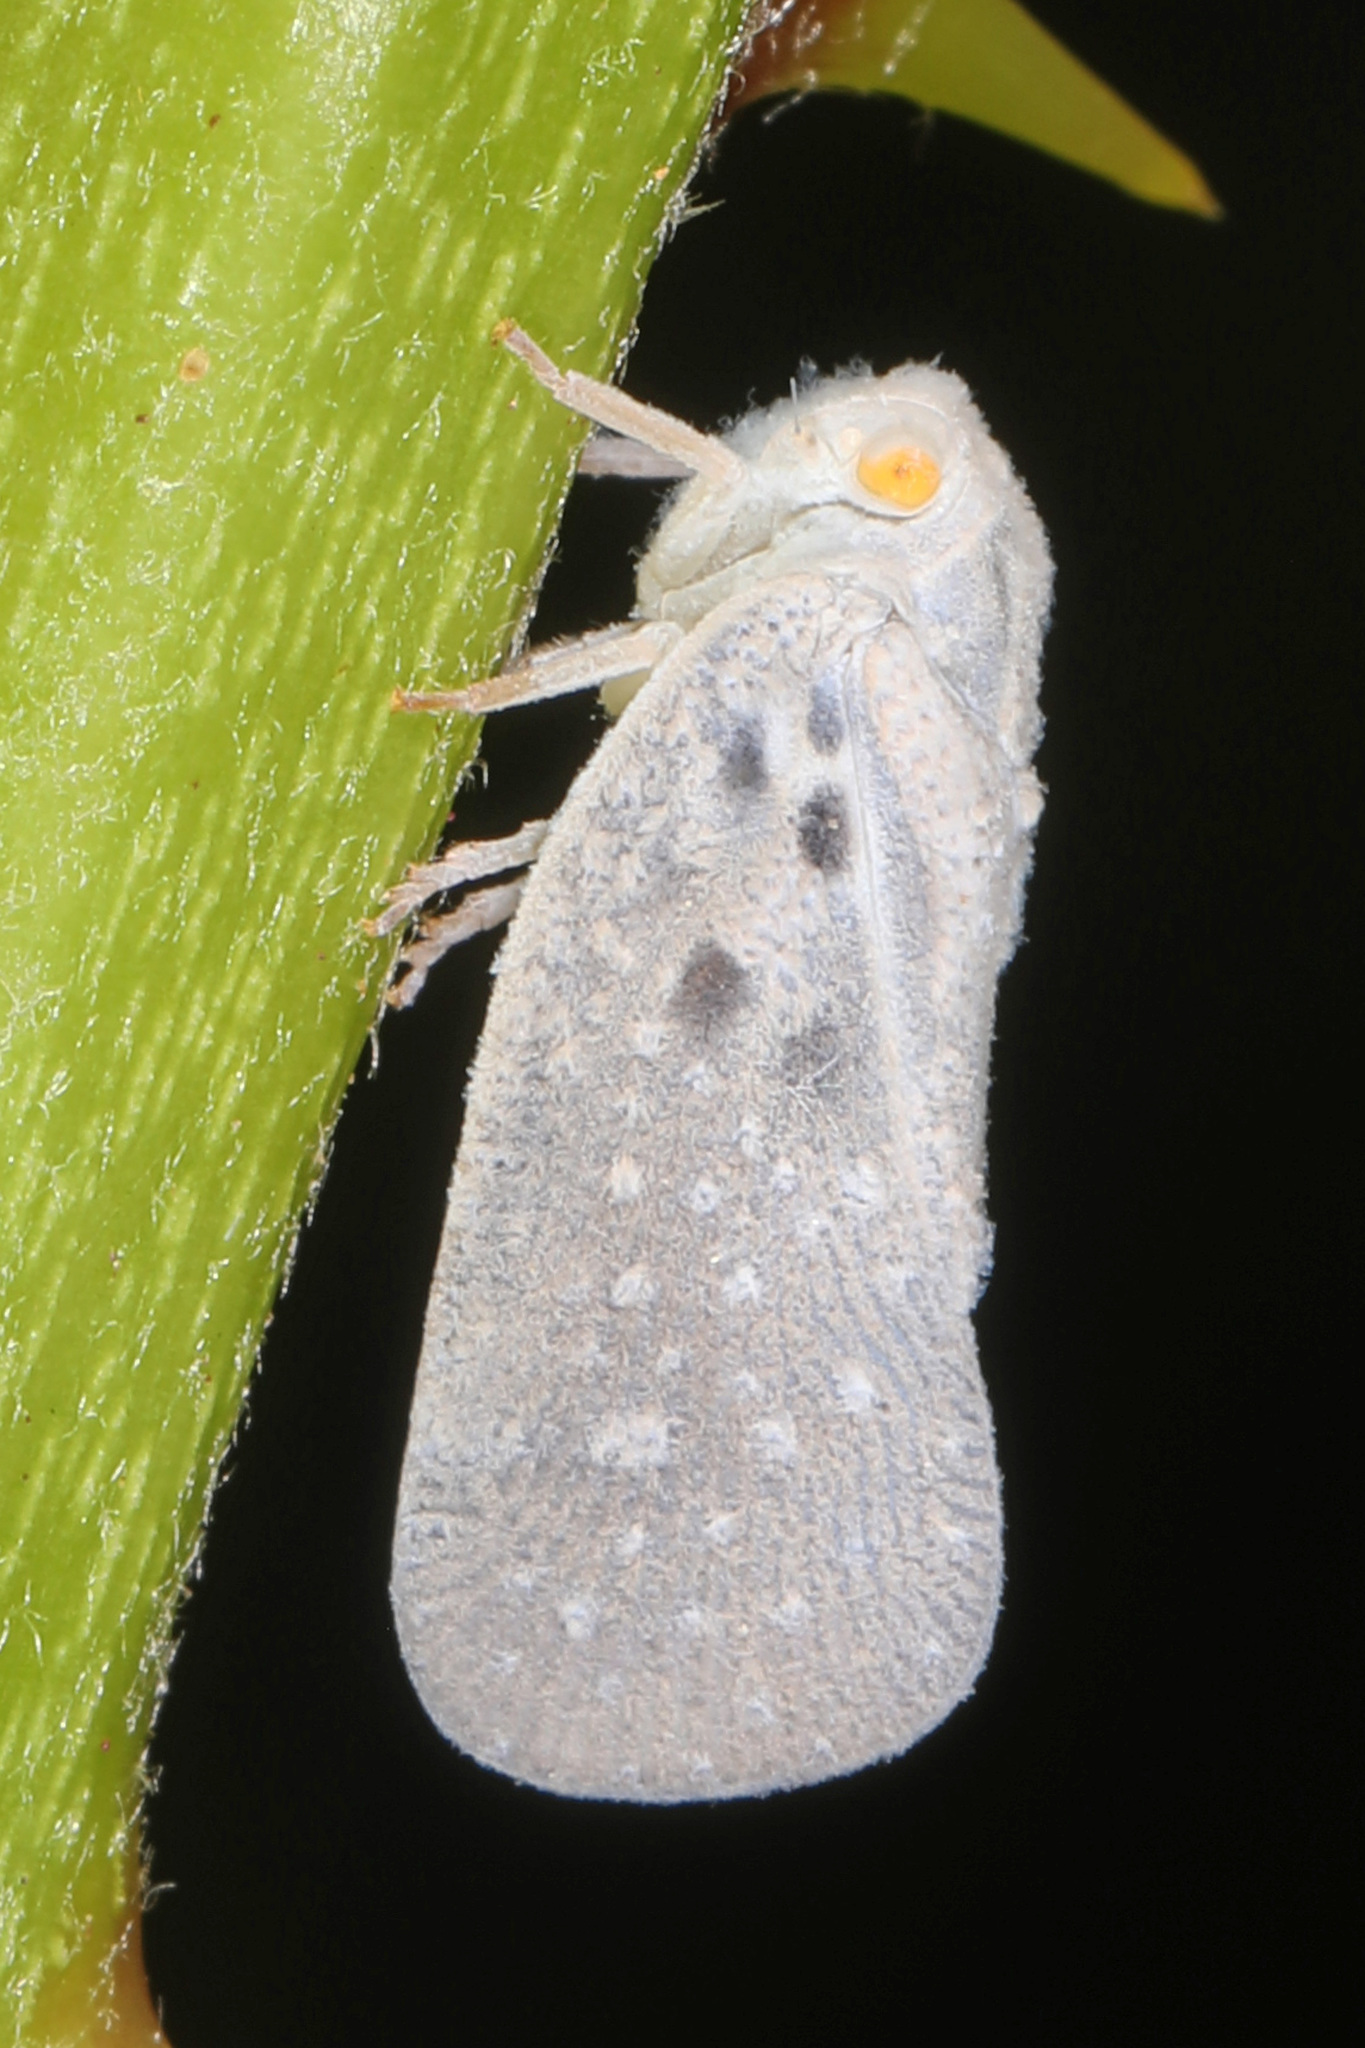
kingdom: Animalia
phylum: Arthropoda
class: Insecta
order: Hemiptera
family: Flatidae
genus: Metcalfa
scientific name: Metcalfa pruinosa
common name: Citrus flatid planthopper
